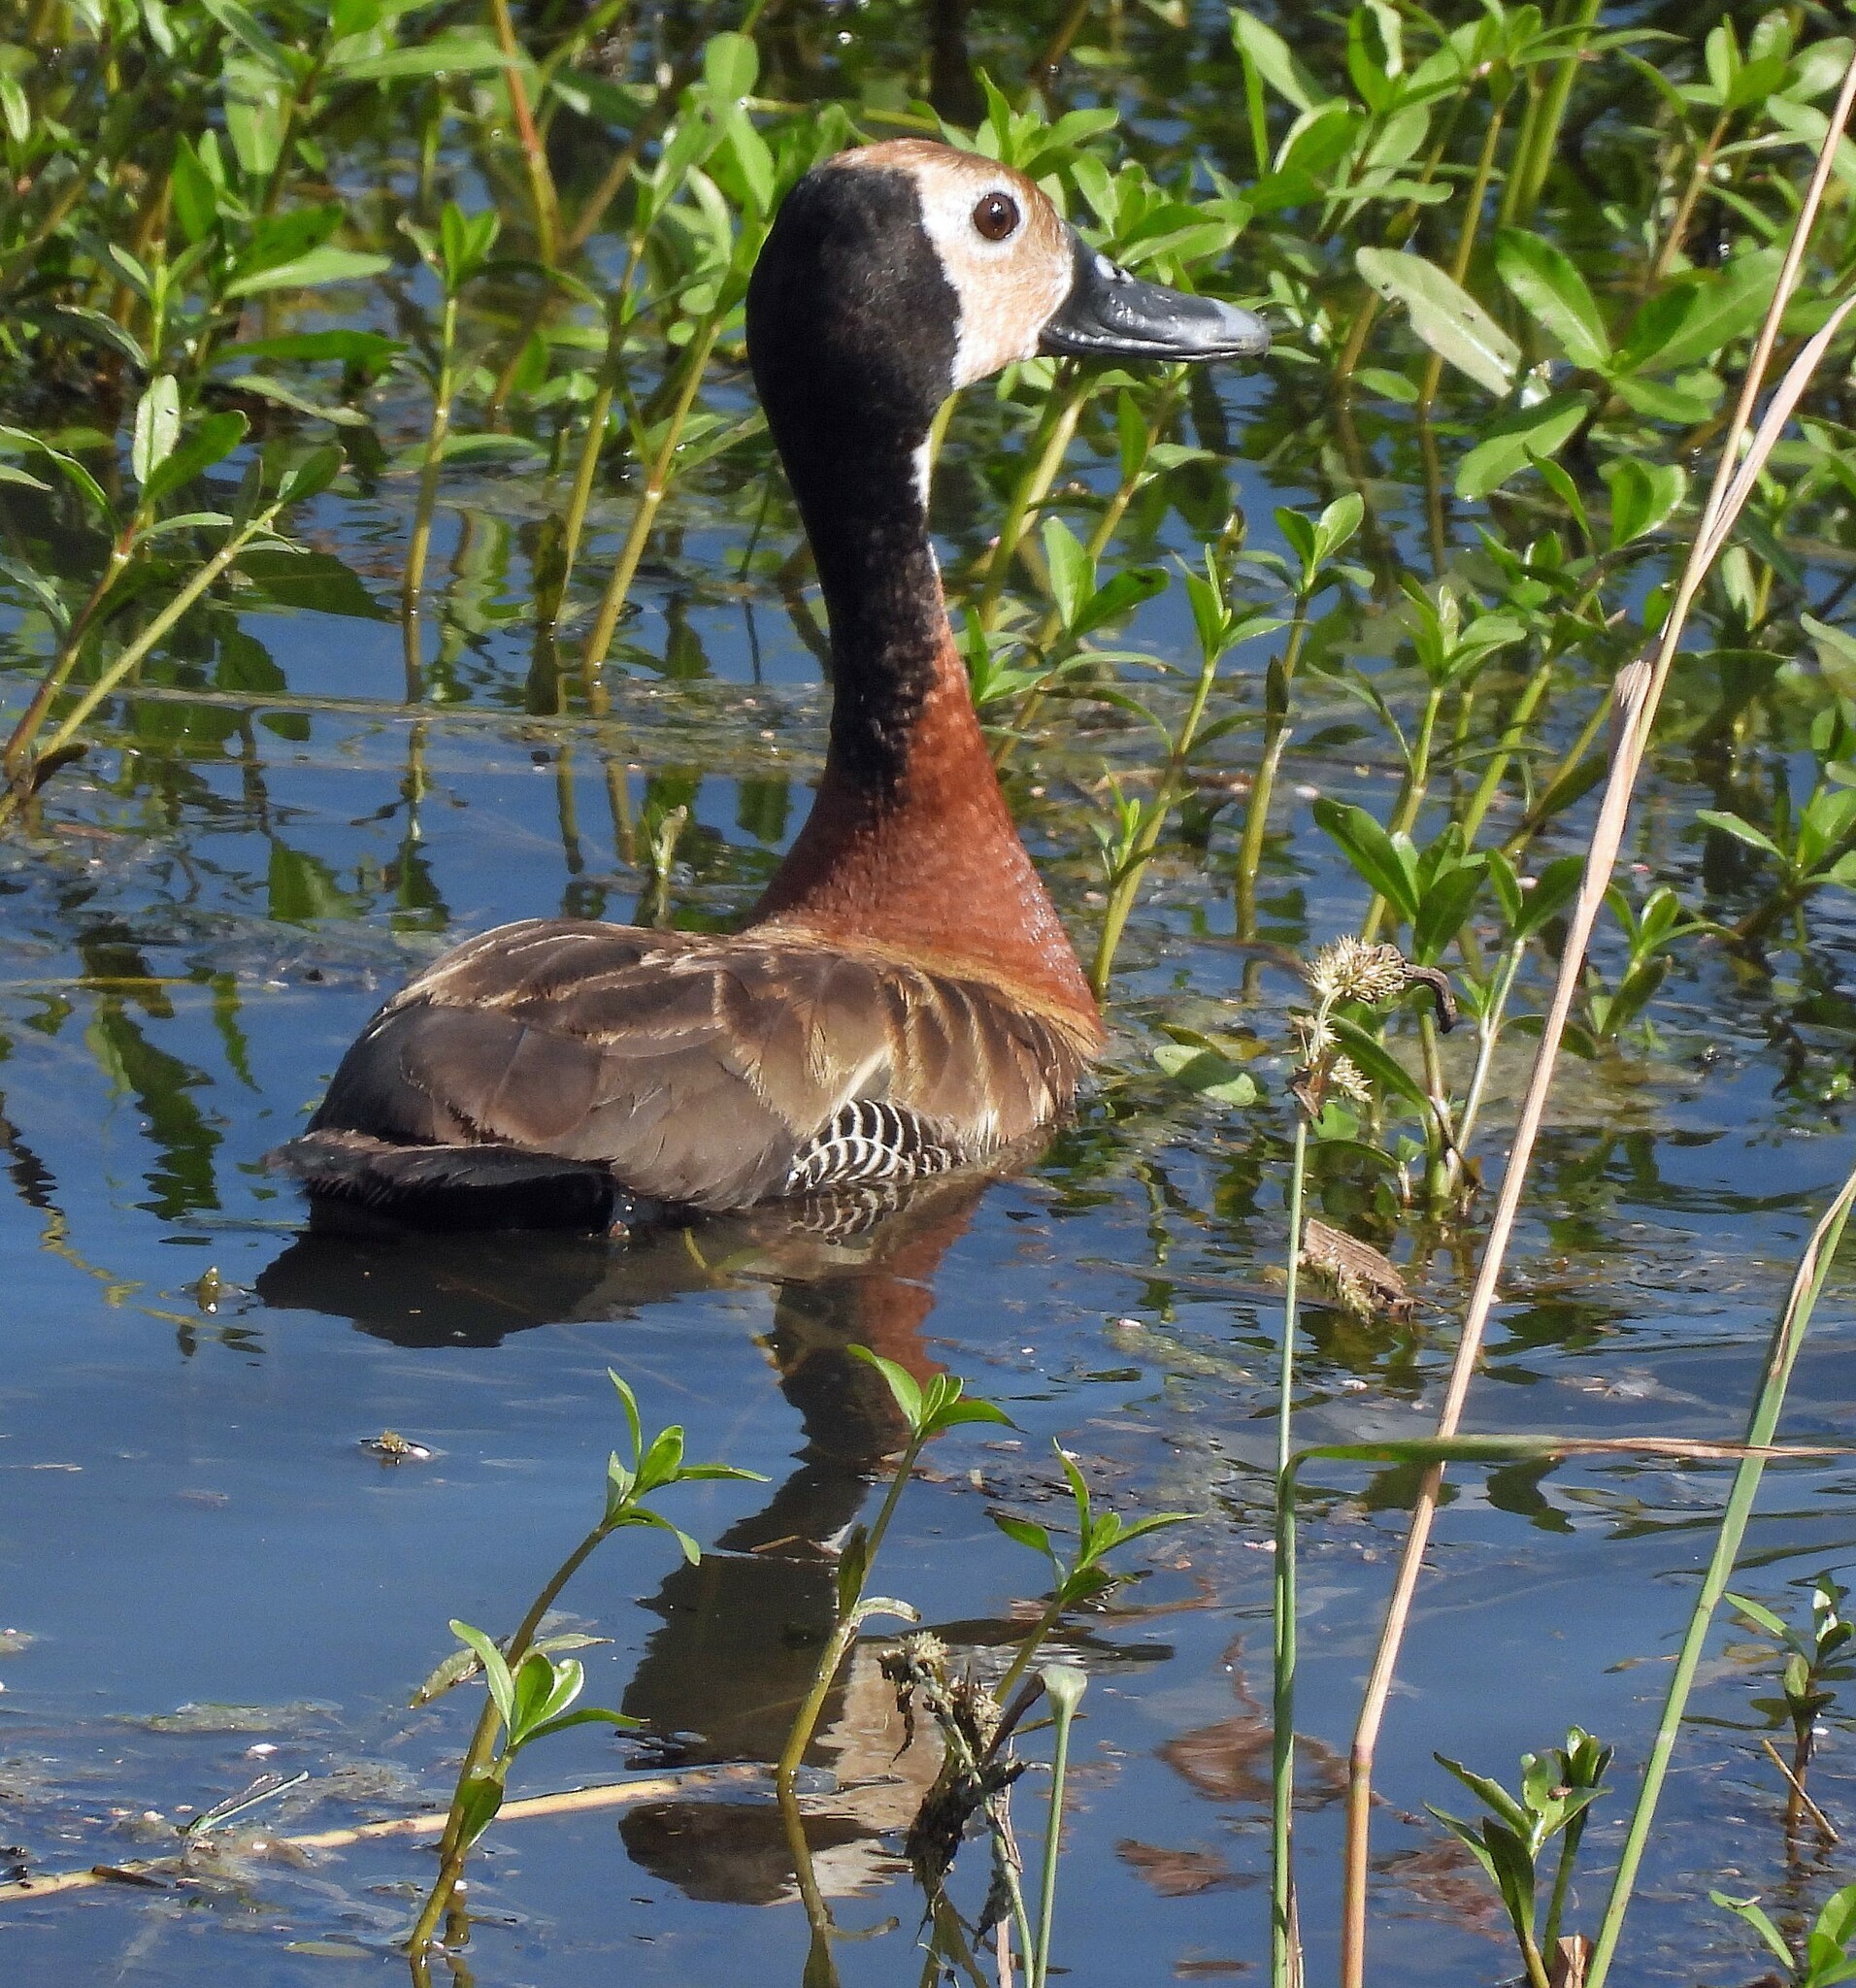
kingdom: Animalia
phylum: Chordata
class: Aves
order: Anseriformes
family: Anatidae
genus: Dendrocygna
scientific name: Dendrocygna viduata
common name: White-faced whistling duck
